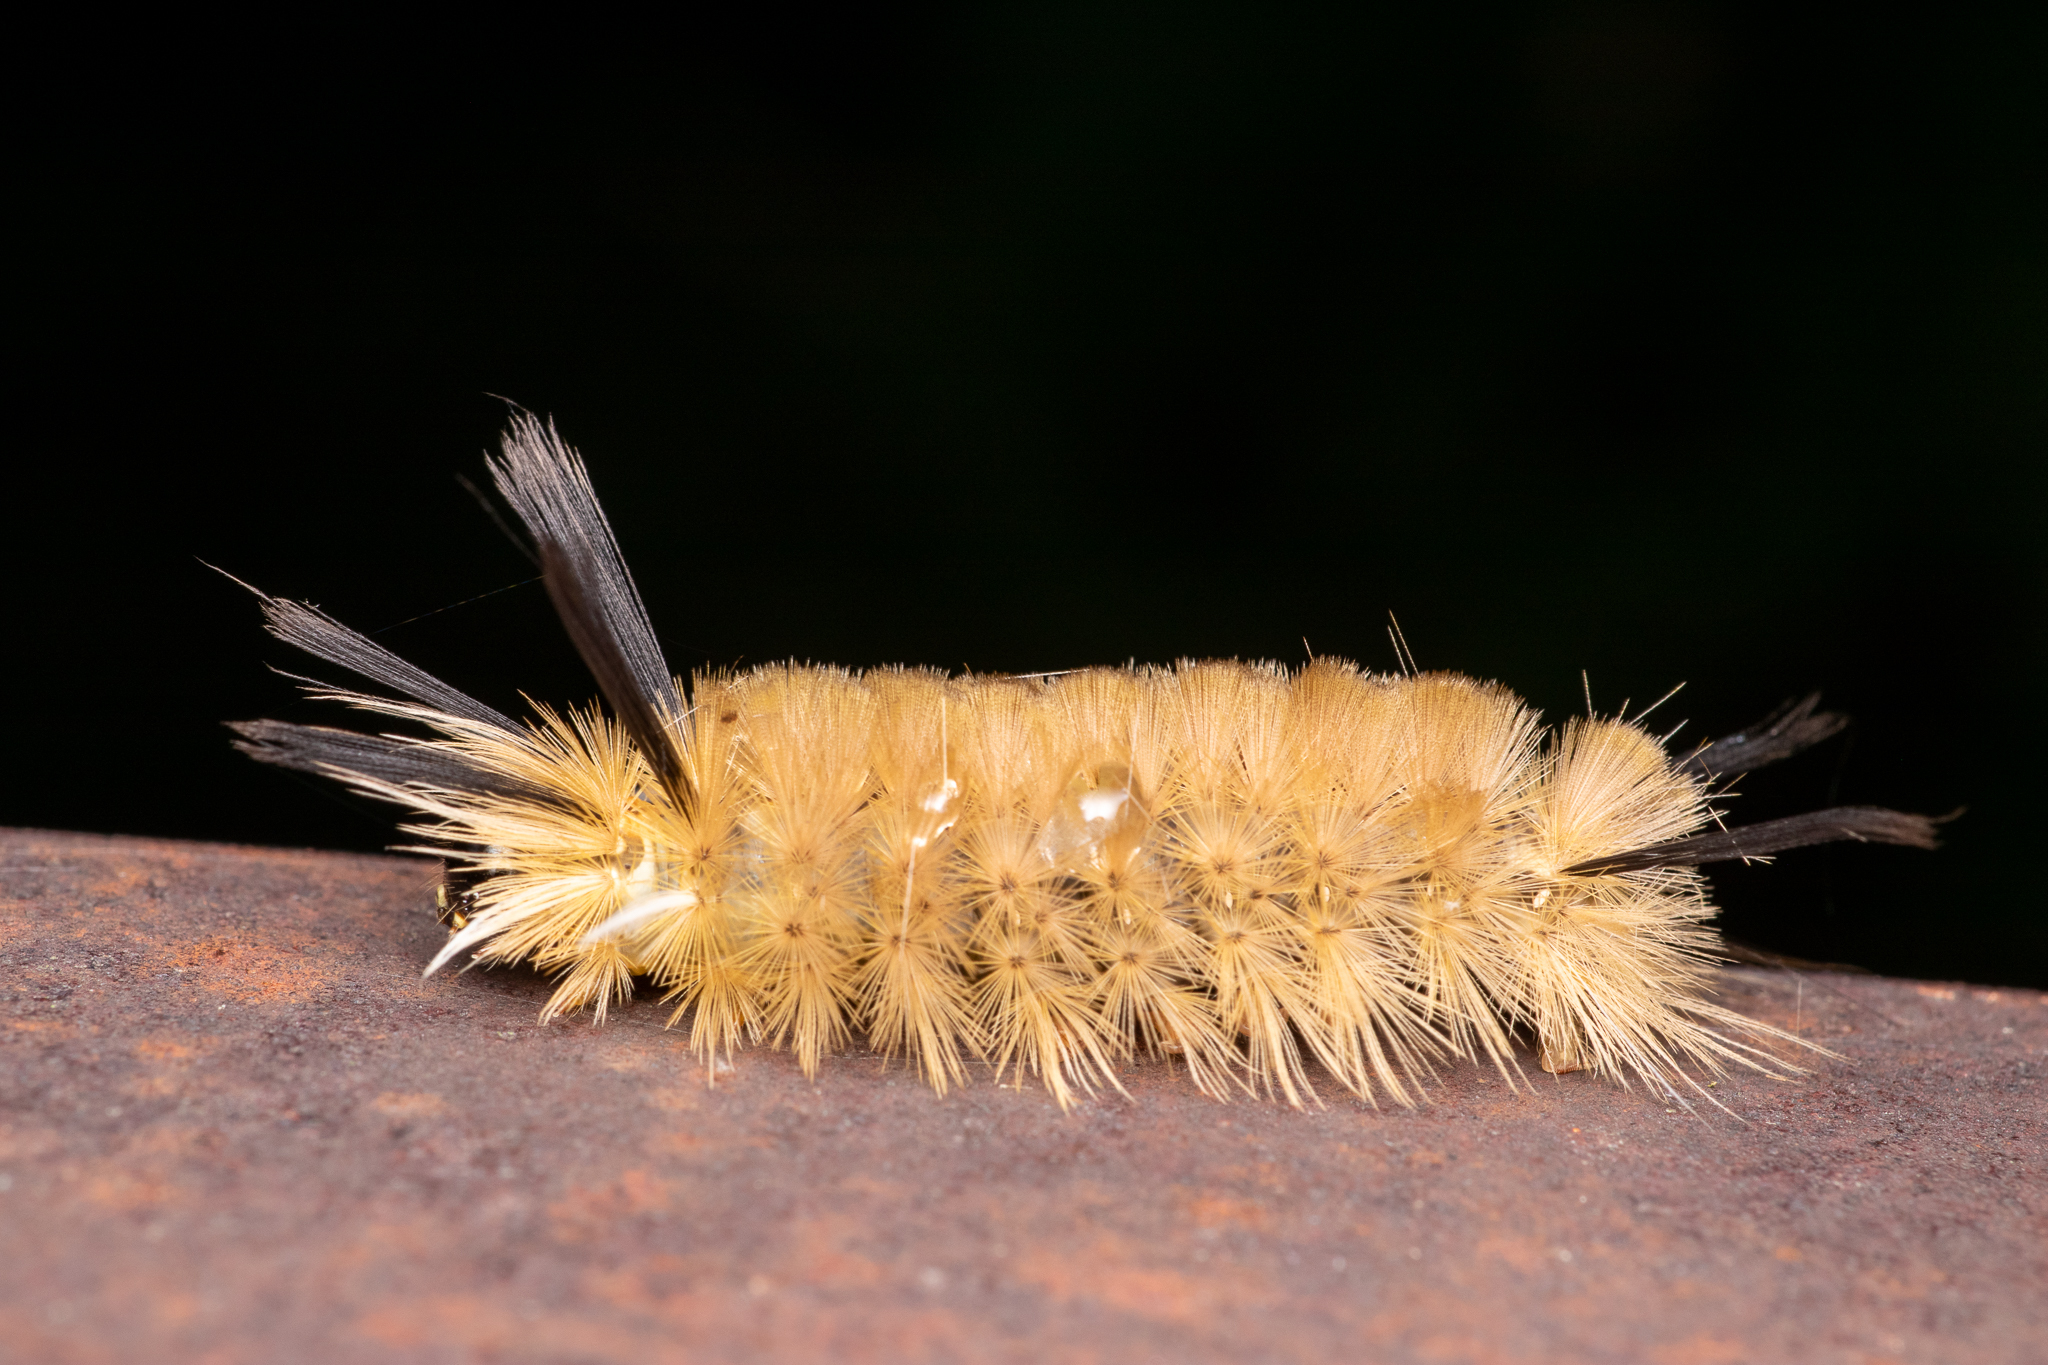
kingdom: Animalia
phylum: Arthropoda
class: Insecta
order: Lepidoptera
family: Erebidae
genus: Halysidota
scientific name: Halysidota tessellaris
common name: Banded tussock moth
